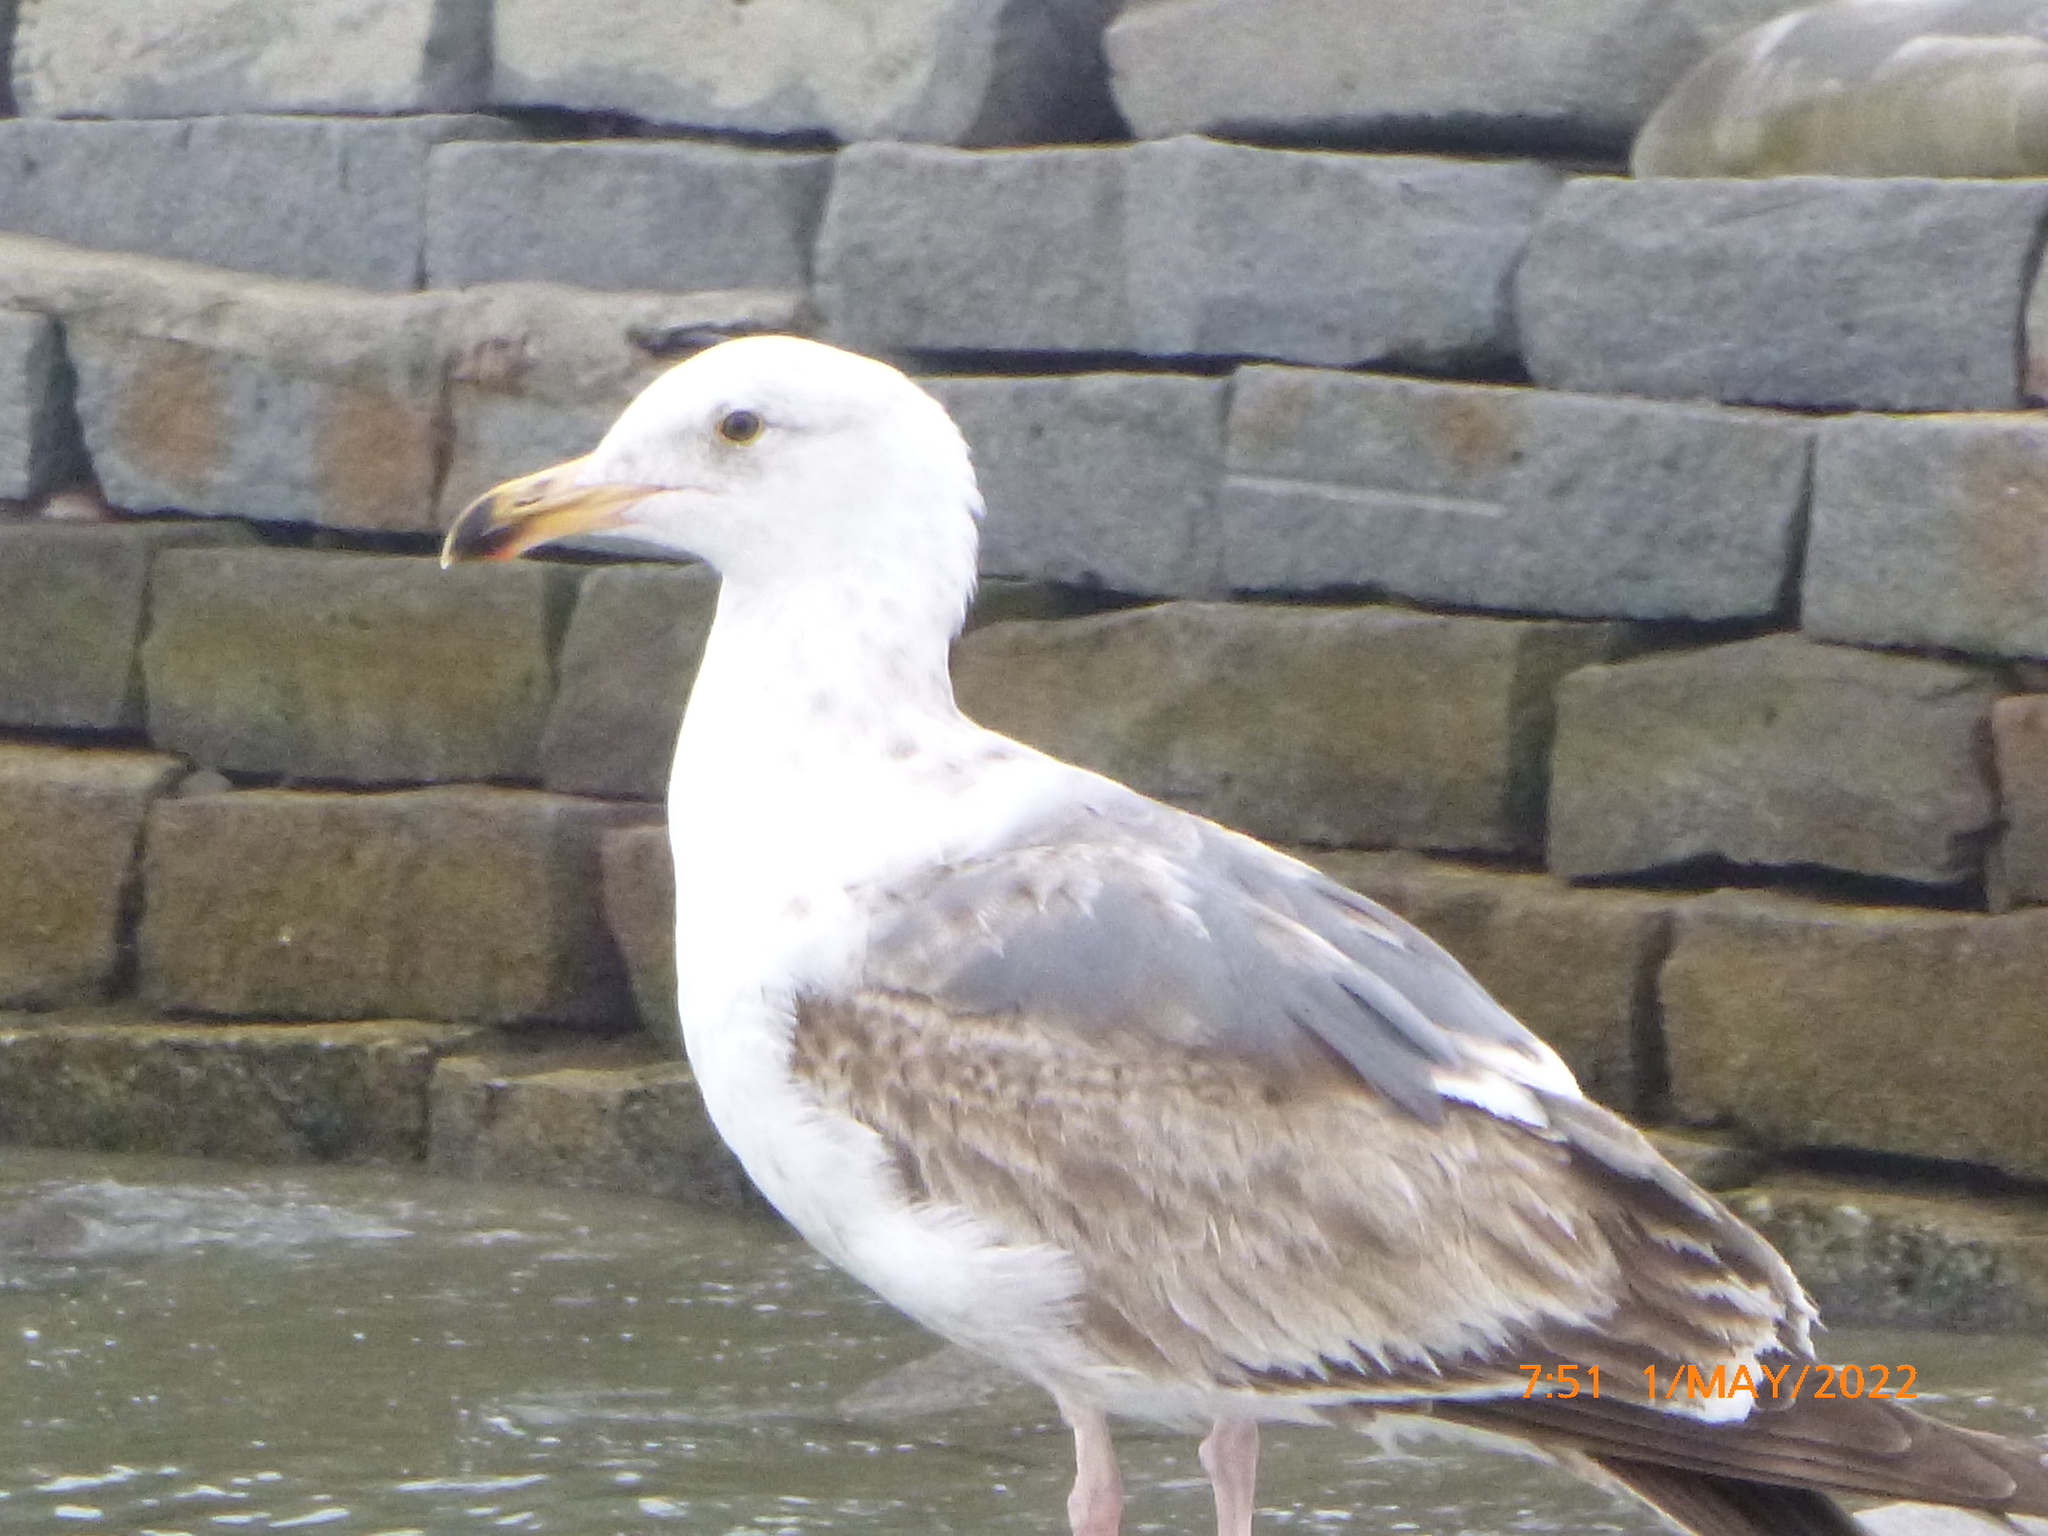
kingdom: Animalia
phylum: Chordata
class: Aves
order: Charadriiformes
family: Laridae
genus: Larus
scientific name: Larus occidentalis
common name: Western gull
